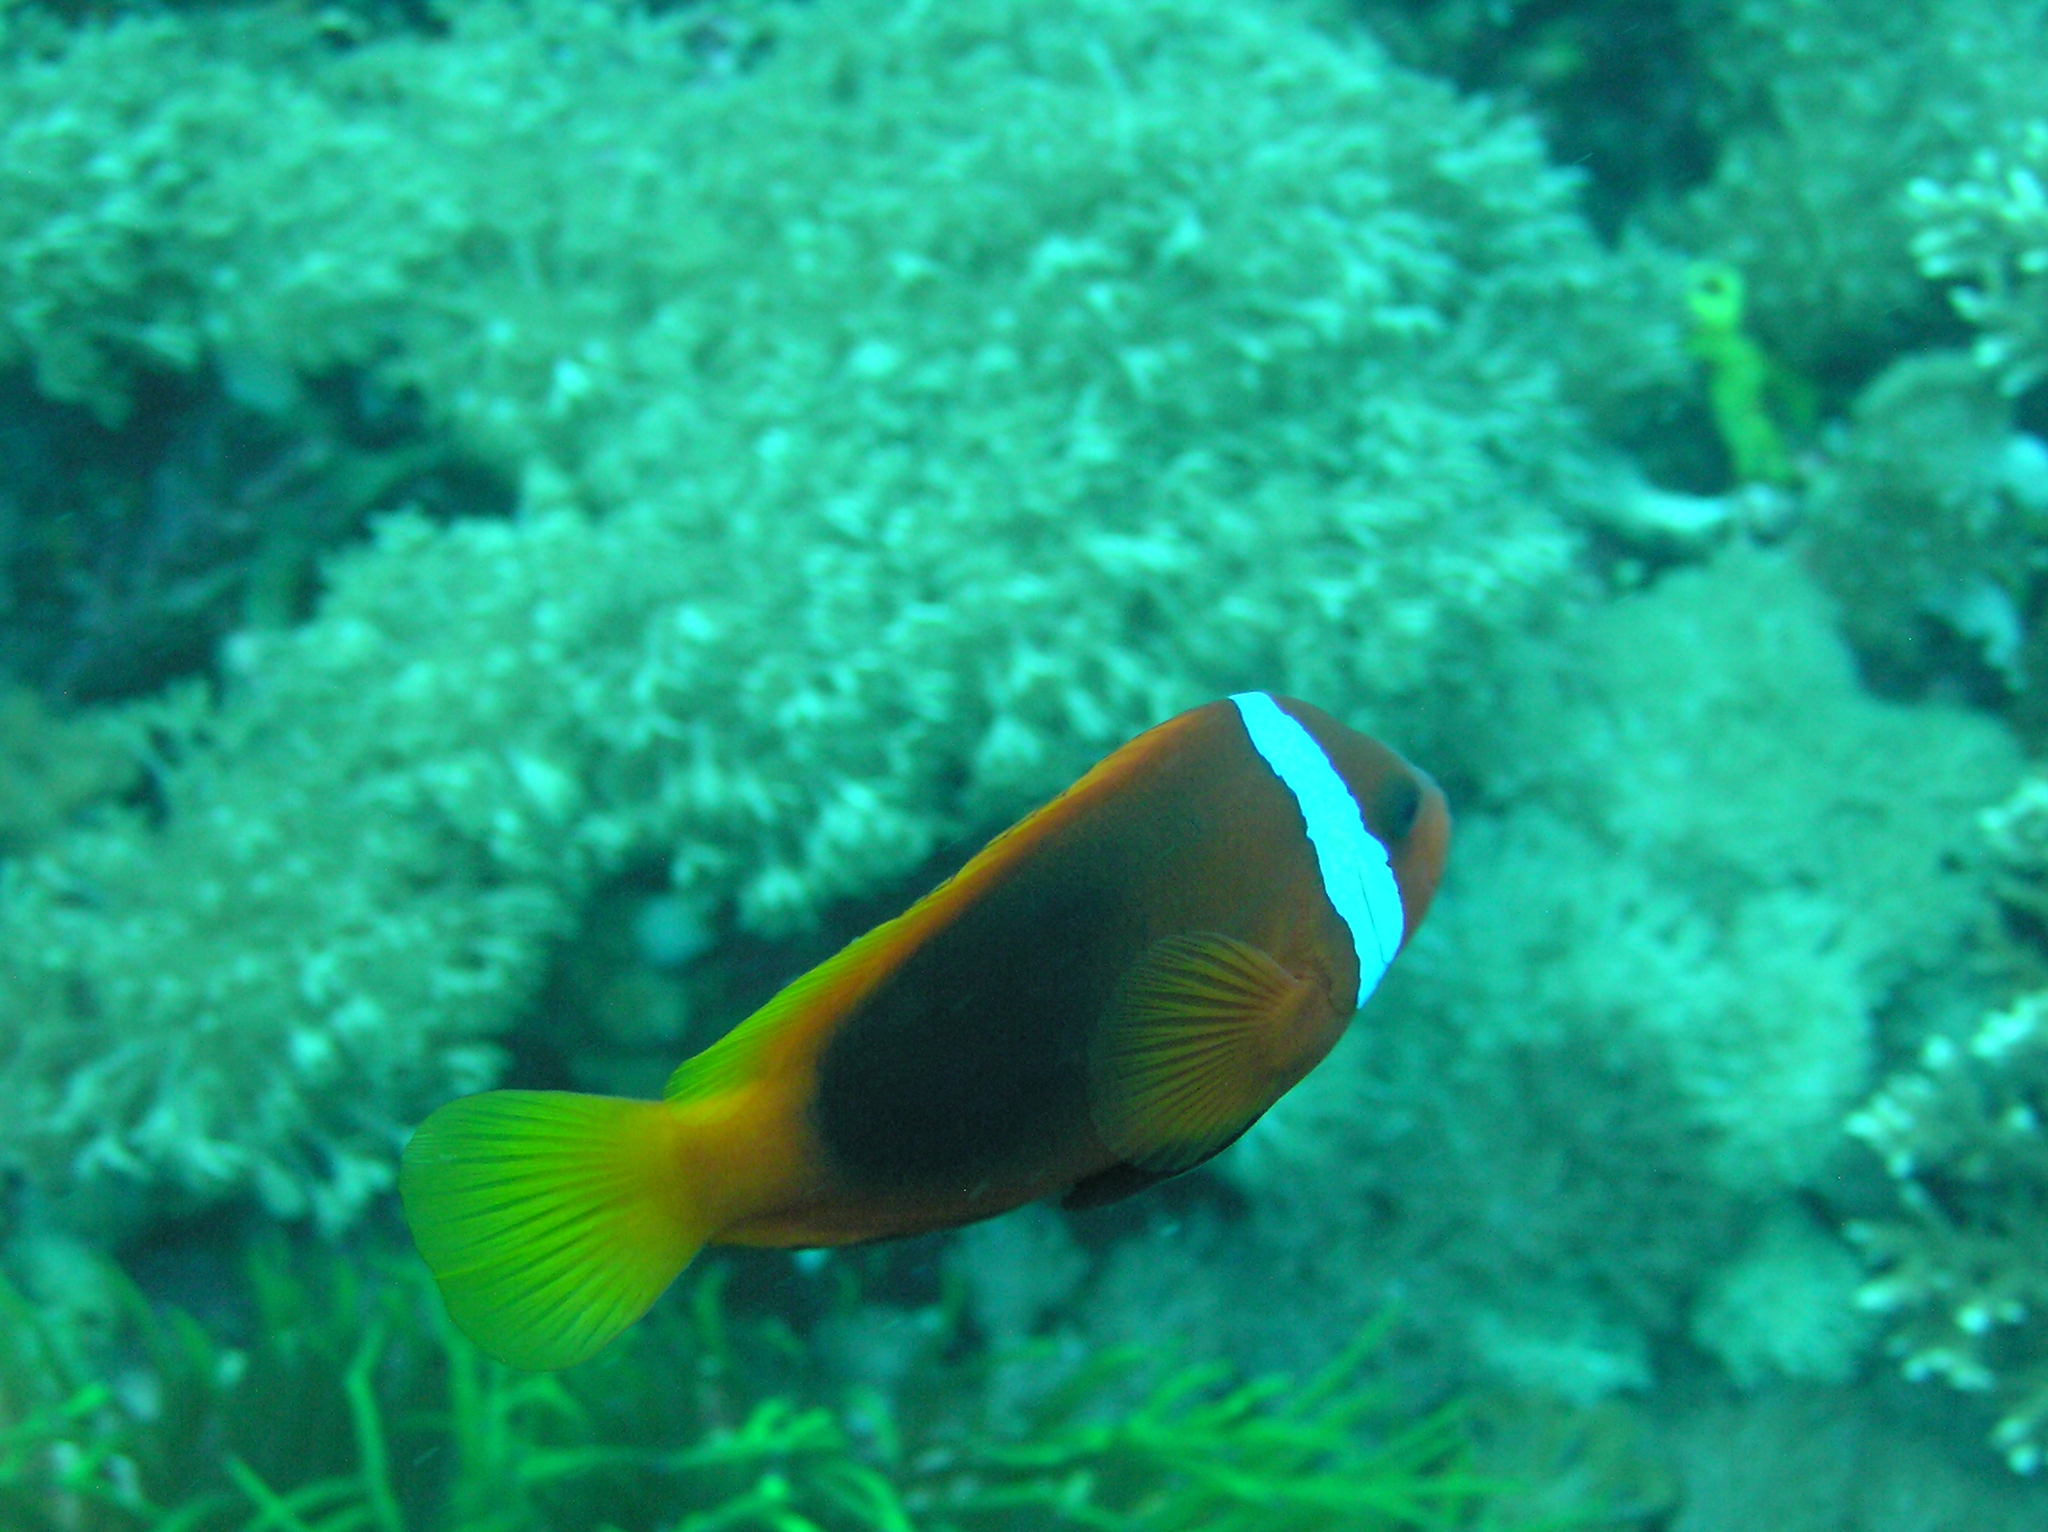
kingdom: Animalia
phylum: Chordata
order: Perciformes
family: Pomacentridae
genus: Amphiprion
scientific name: Amphiprion melanopus
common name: Black anemonefish
